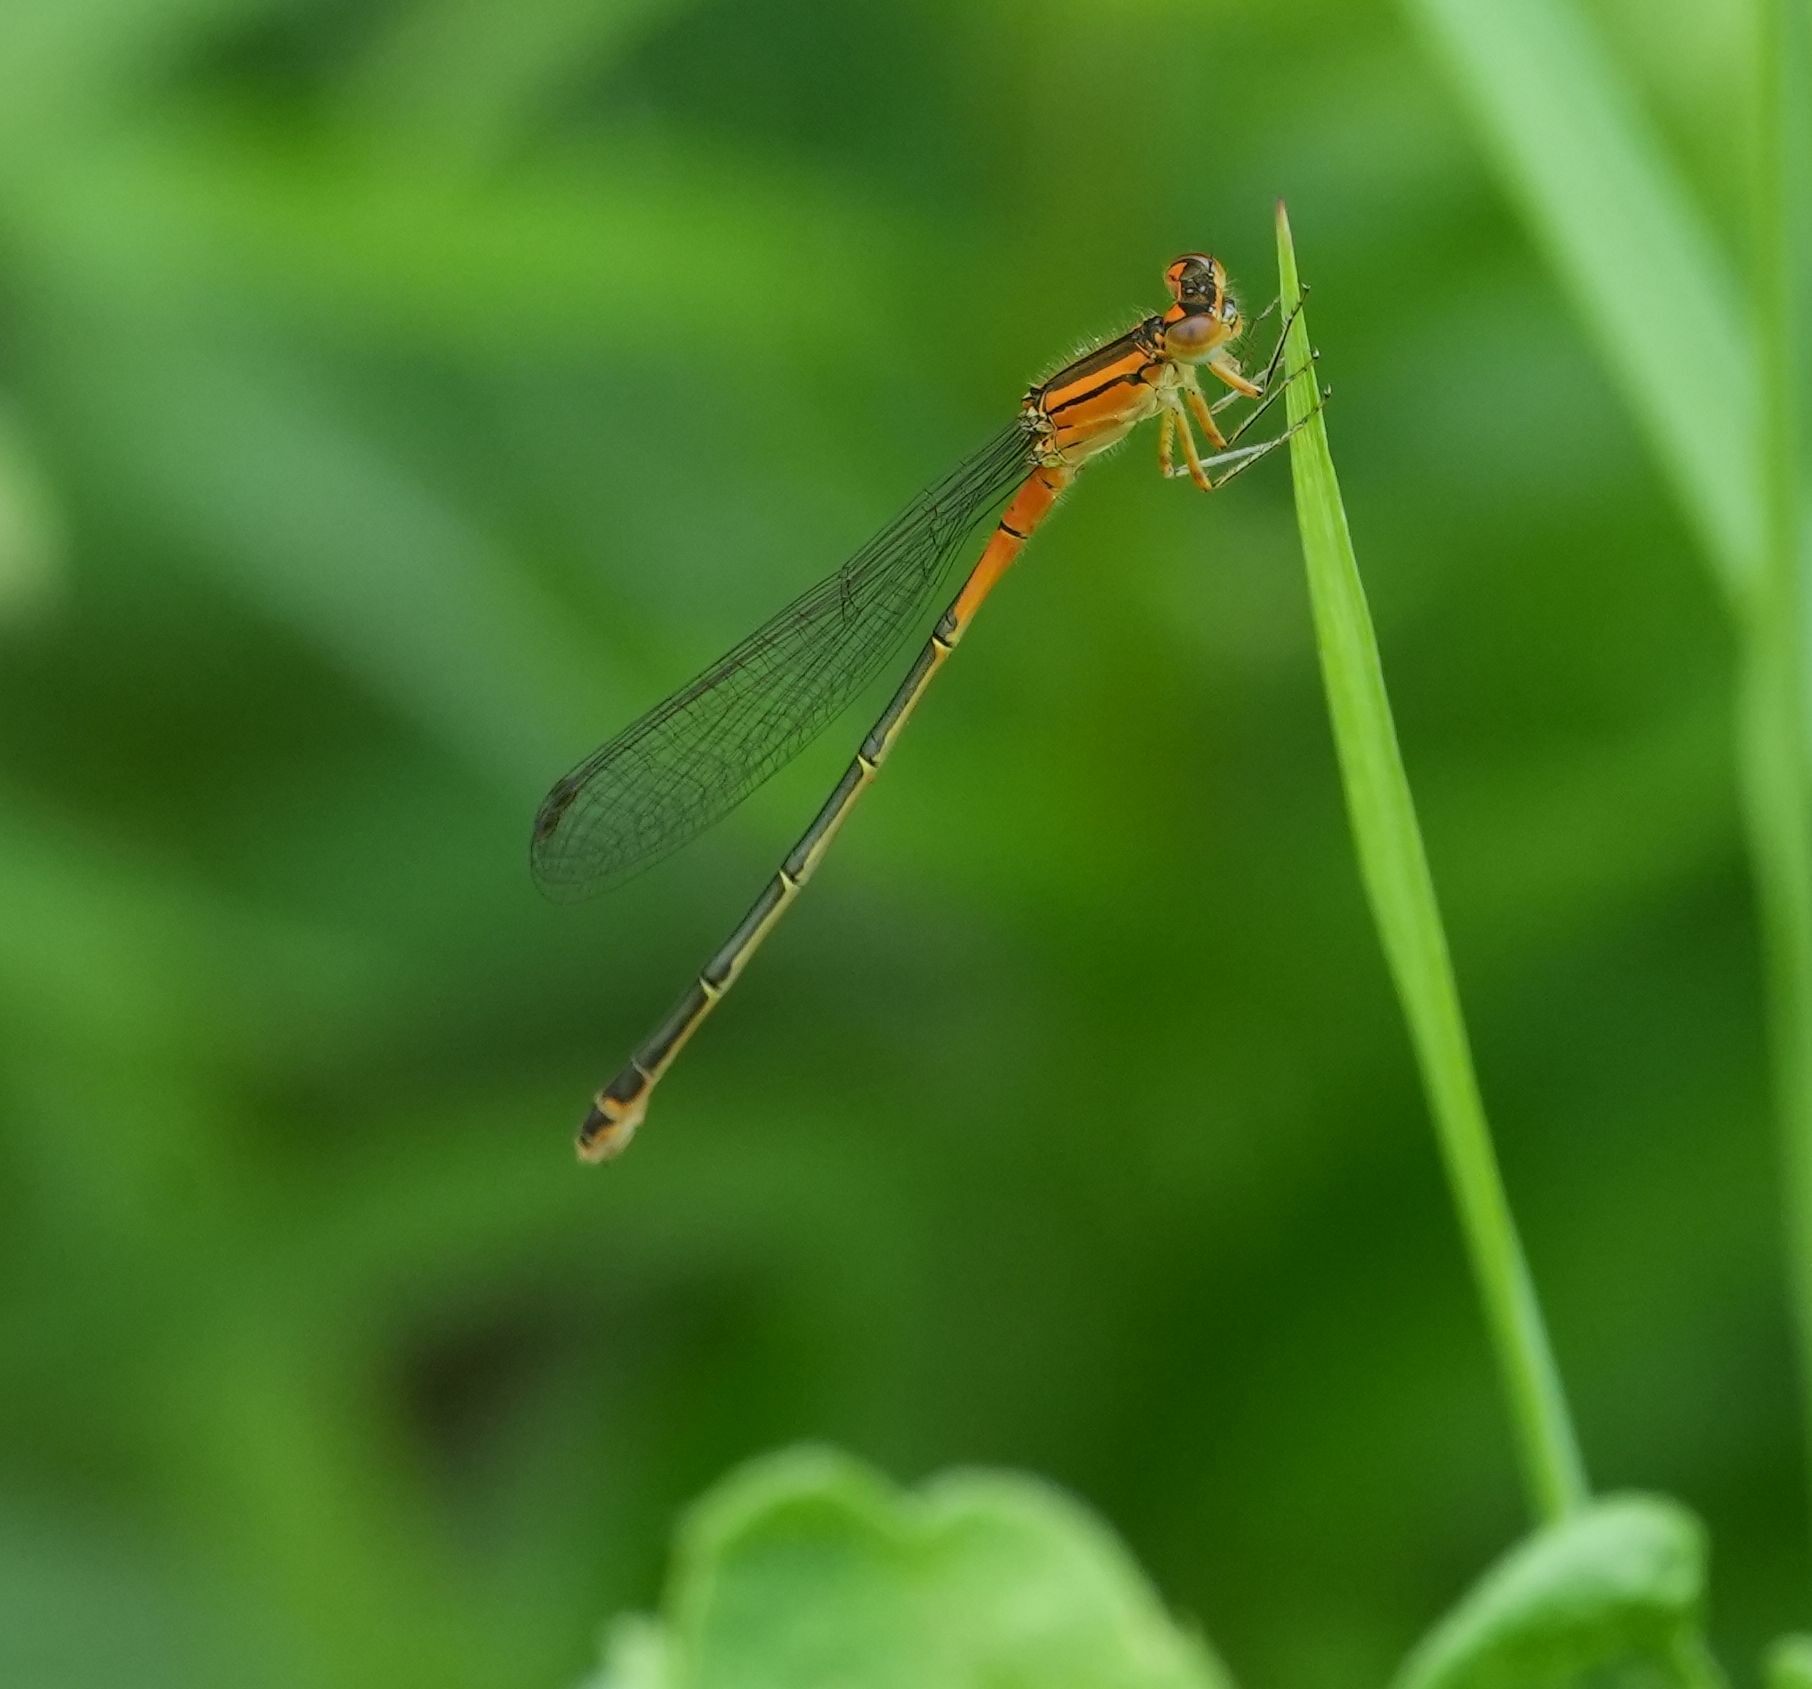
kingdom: Animalia
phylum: Arthropoda
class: Insecta
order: Odonata
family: Coenagrionidae
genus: Ischnura
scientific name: Ischnura verticalis
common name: Eastern forktail
